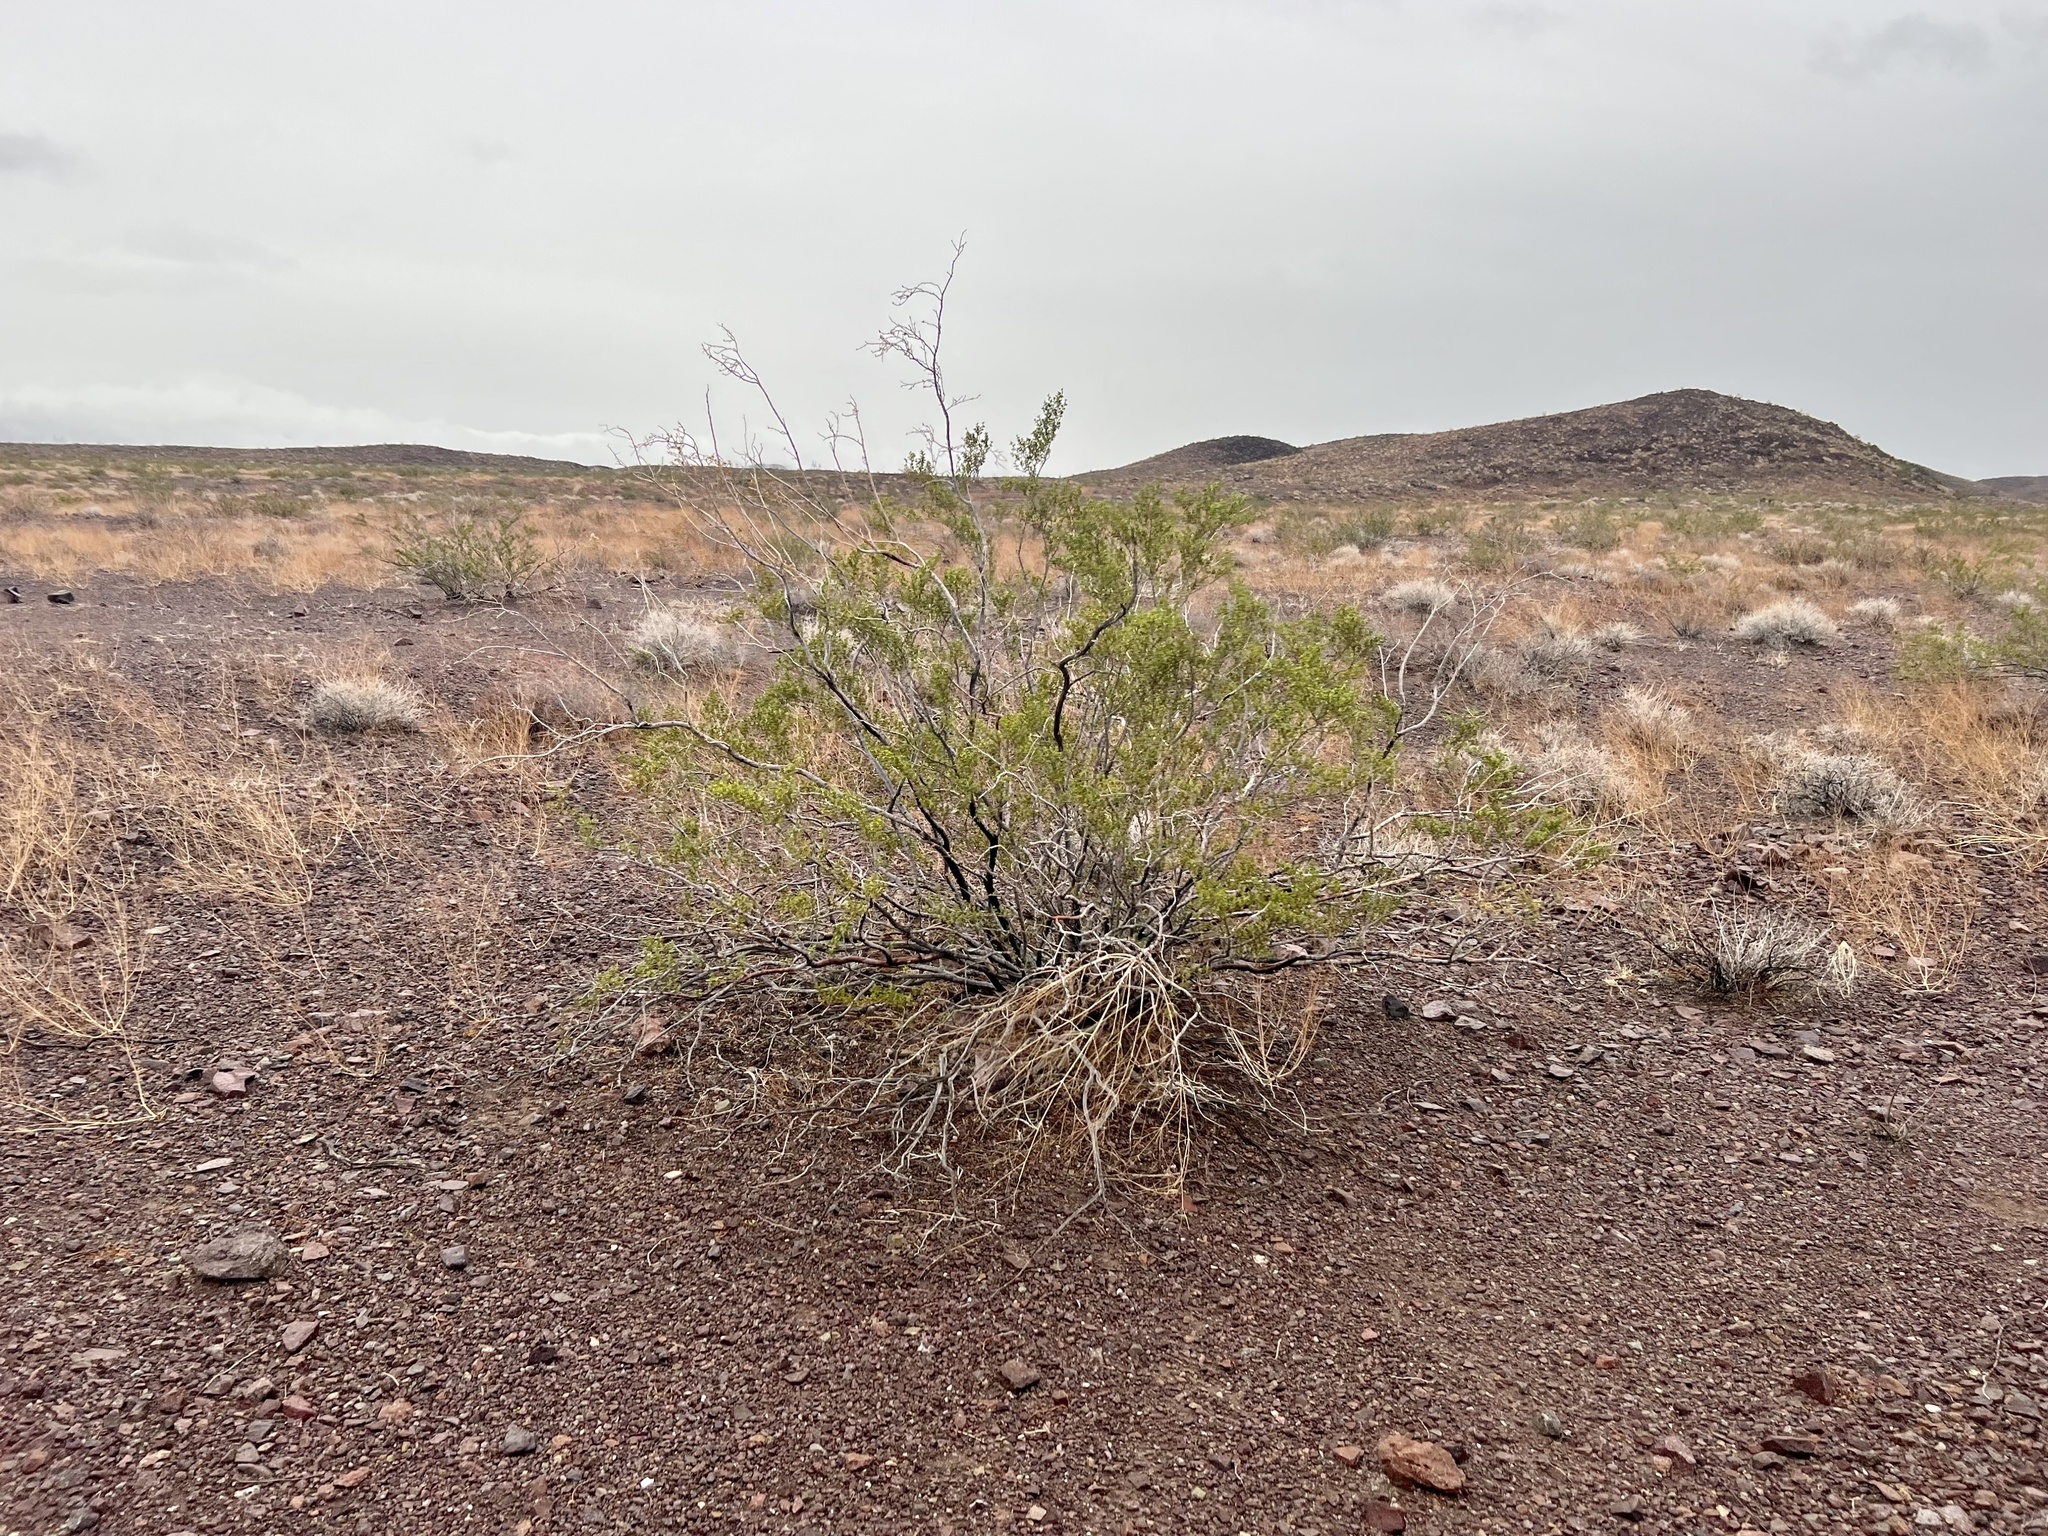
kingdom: Plantae
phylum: Tracheophyta
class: Magnoliopsida
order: Zygophyllales
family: Zygophyllaceae
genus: Larrea
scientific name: Larrea tridentata
